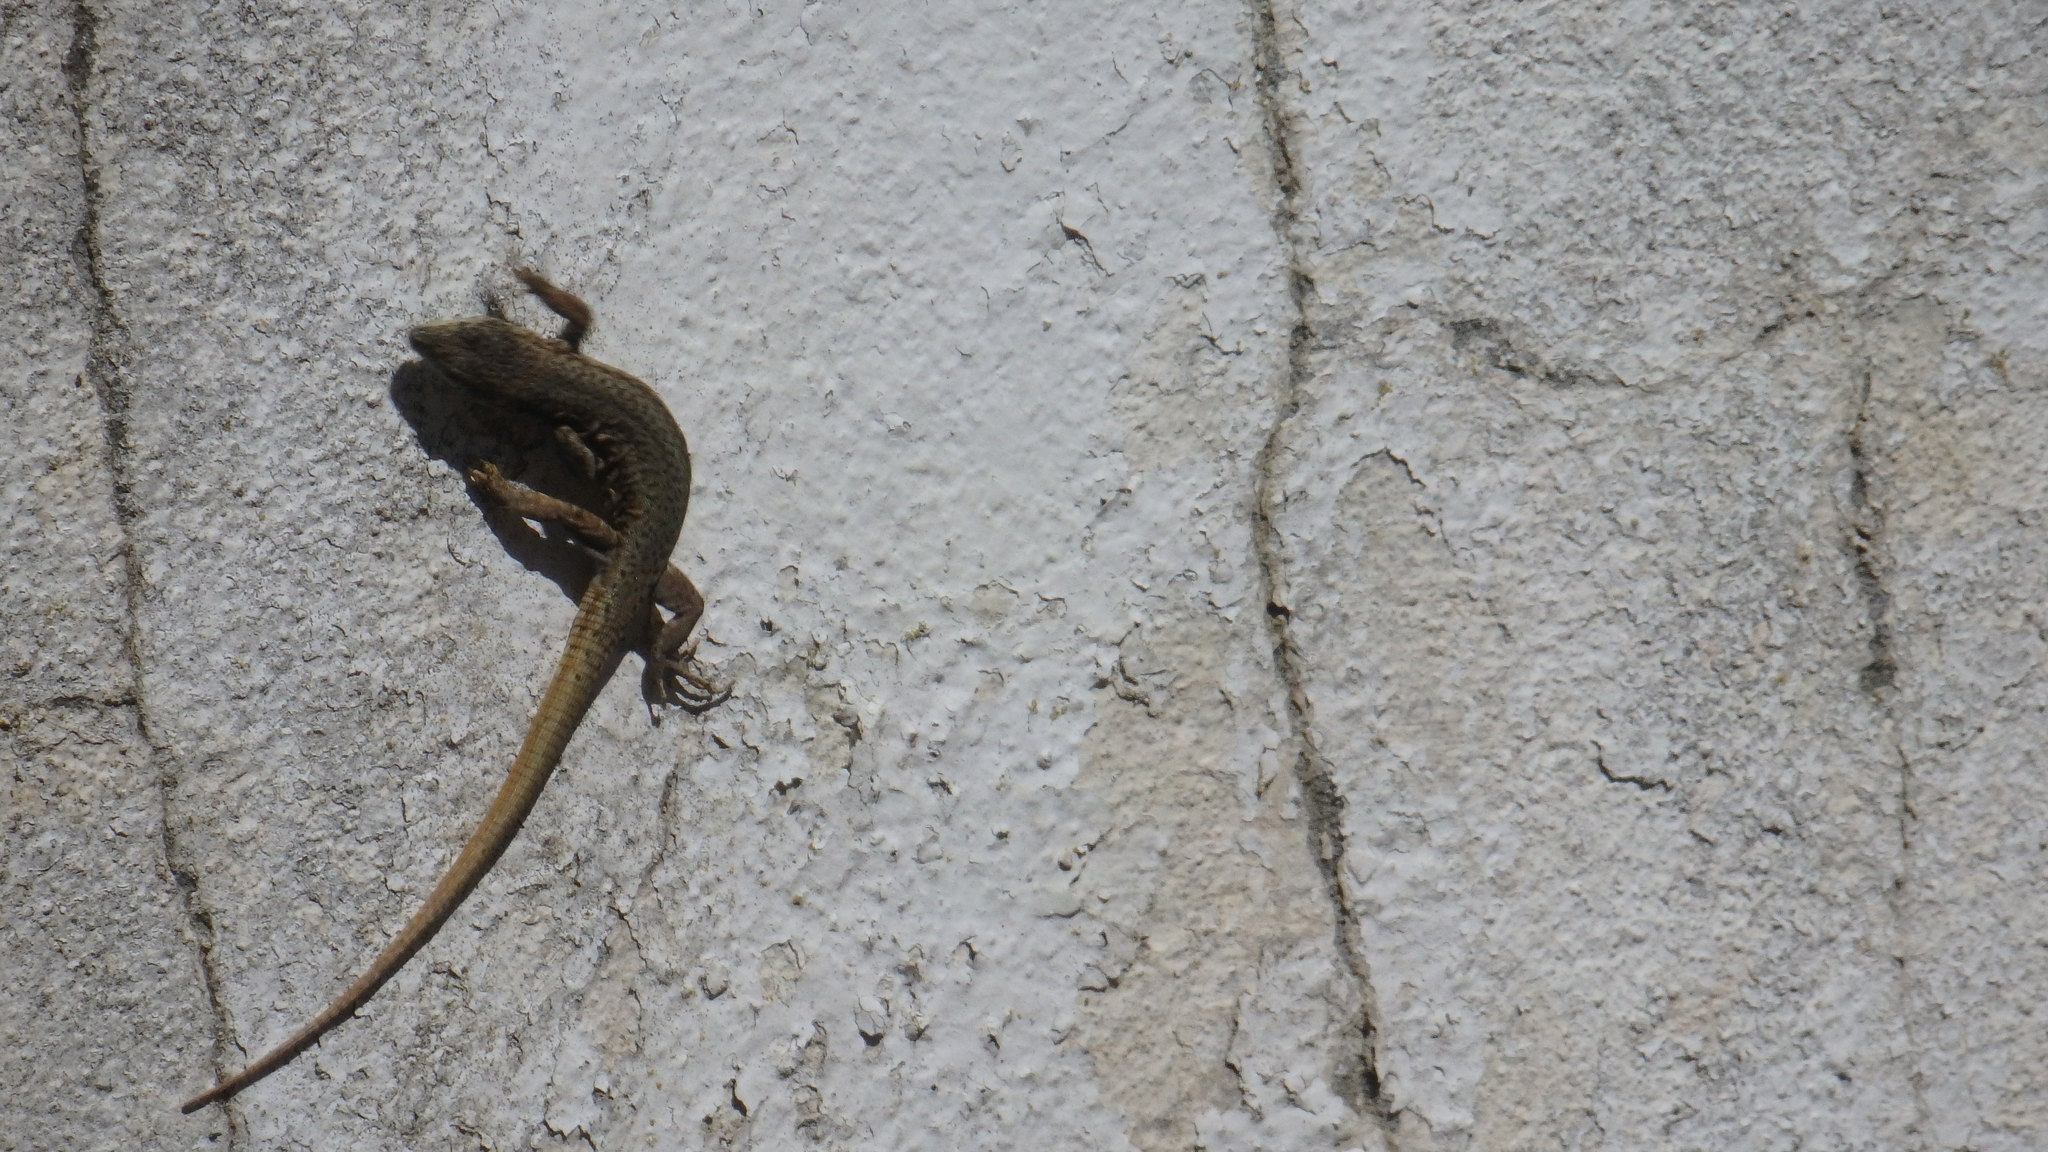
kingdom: Animalia
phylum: Chordata
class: Squamata
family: Lacertidae
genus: Podarcis
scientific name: Podarcis virescens
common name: Geniez’s wall lizard
